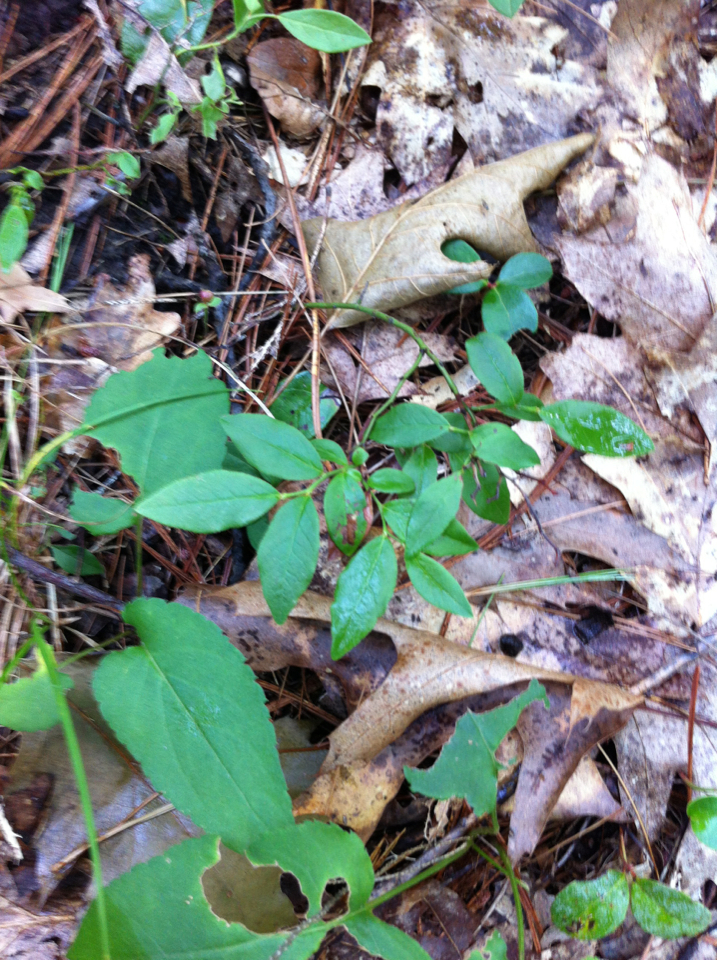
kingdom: Plantae
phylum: Tracheophyta
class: Magnoliopsida
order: Ericales
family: Ericaceae
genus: Vaccinium
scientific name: Vaccinium angustifolium
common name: Early lowbush blueberry
